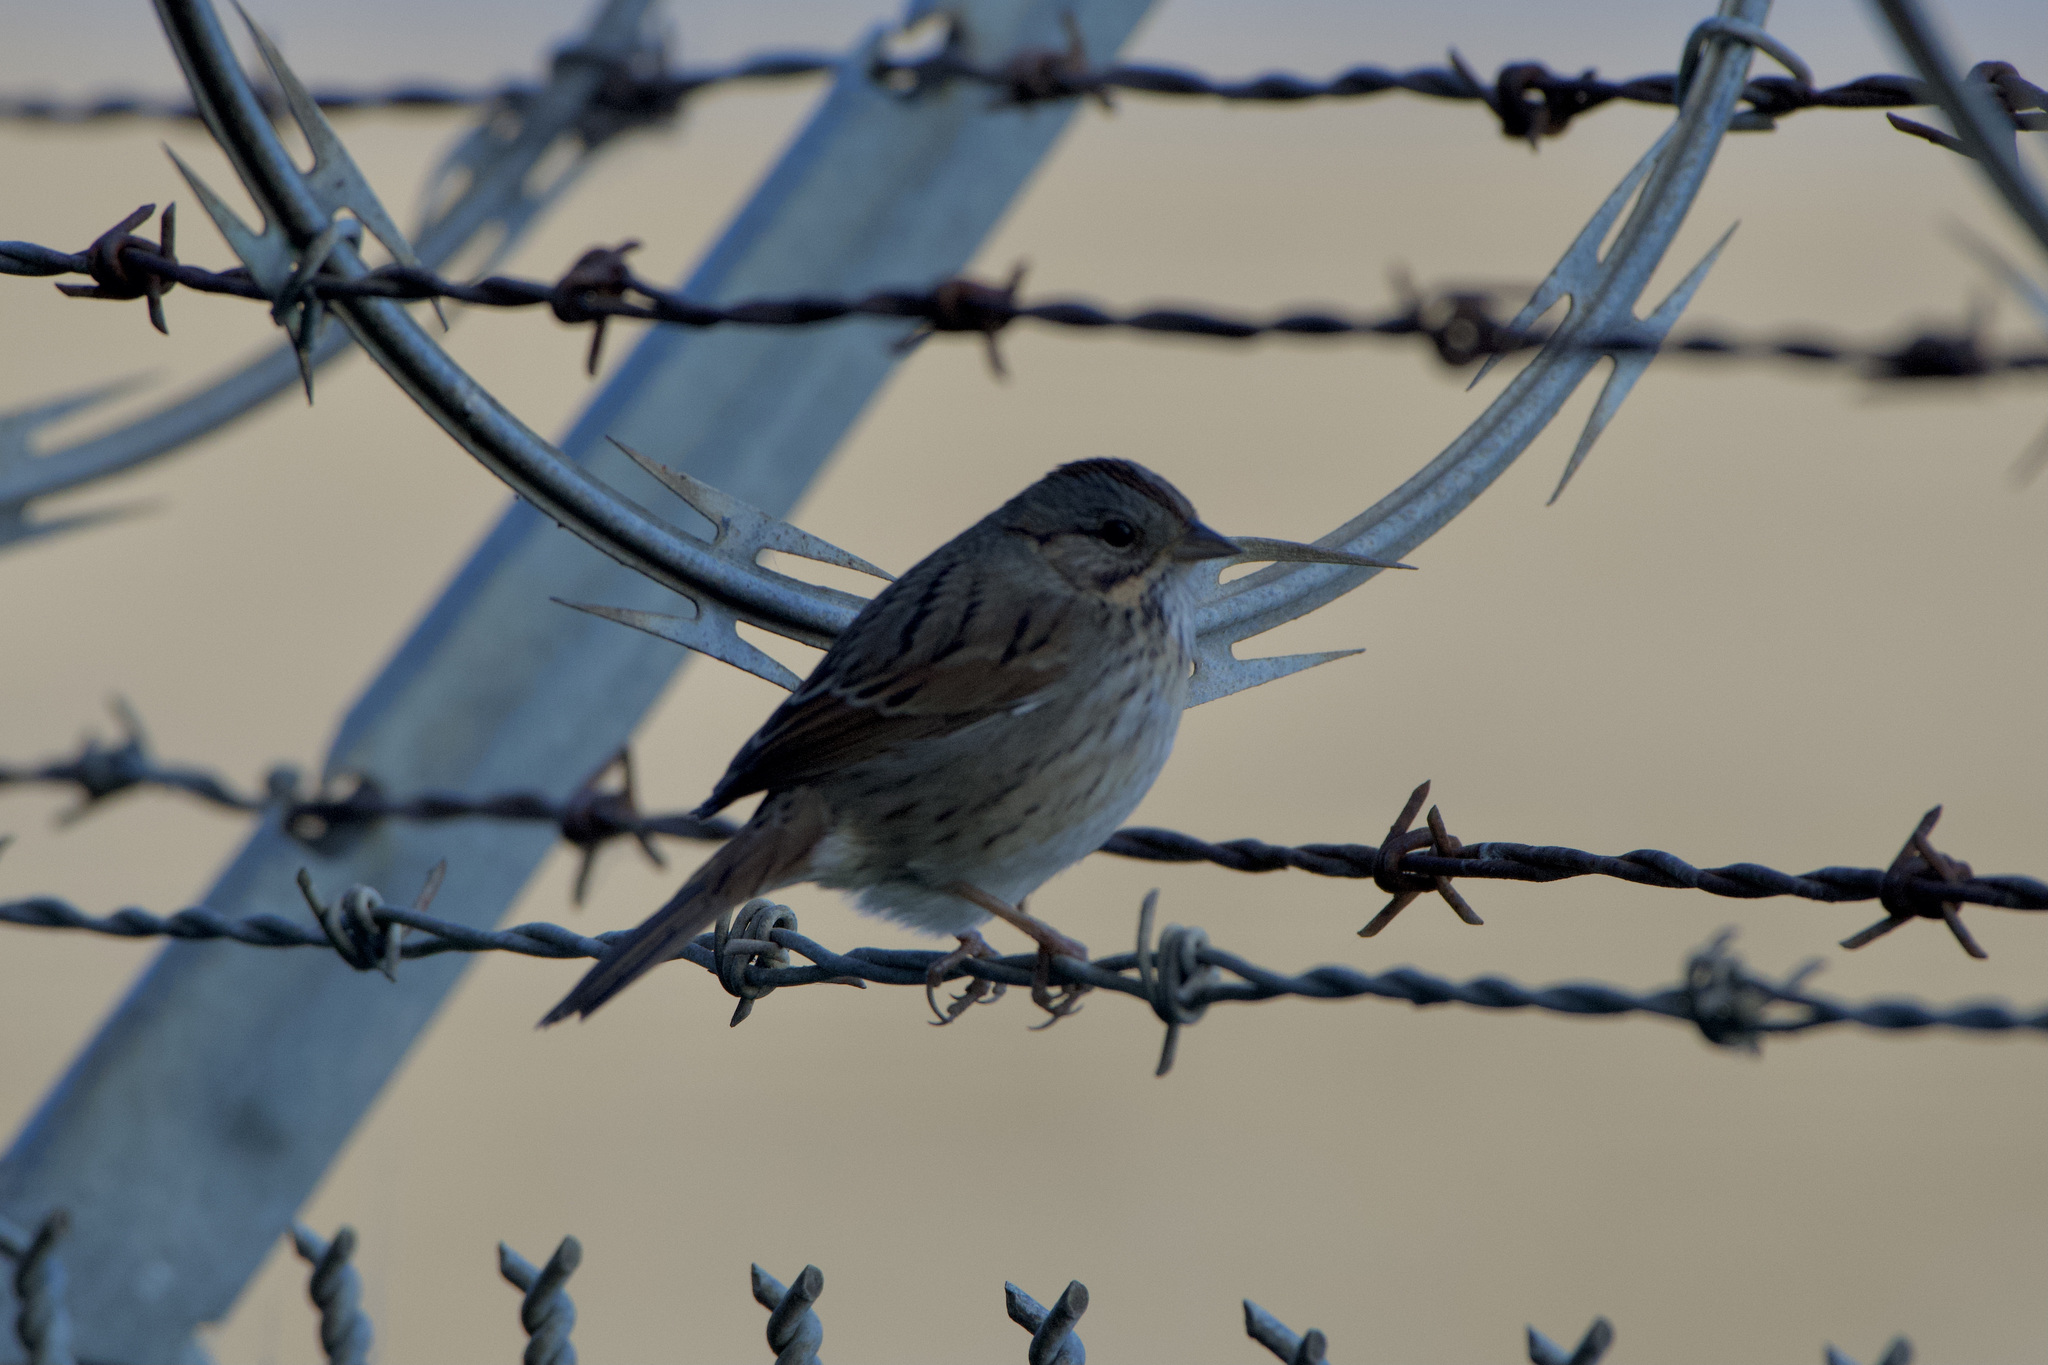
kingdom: Animalia
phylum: Chordata
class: Aves
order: Passeriformes
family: Passerellidae
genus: Melospiza
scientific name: Melospiza lincolnii
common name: Lincoln's sparrow
